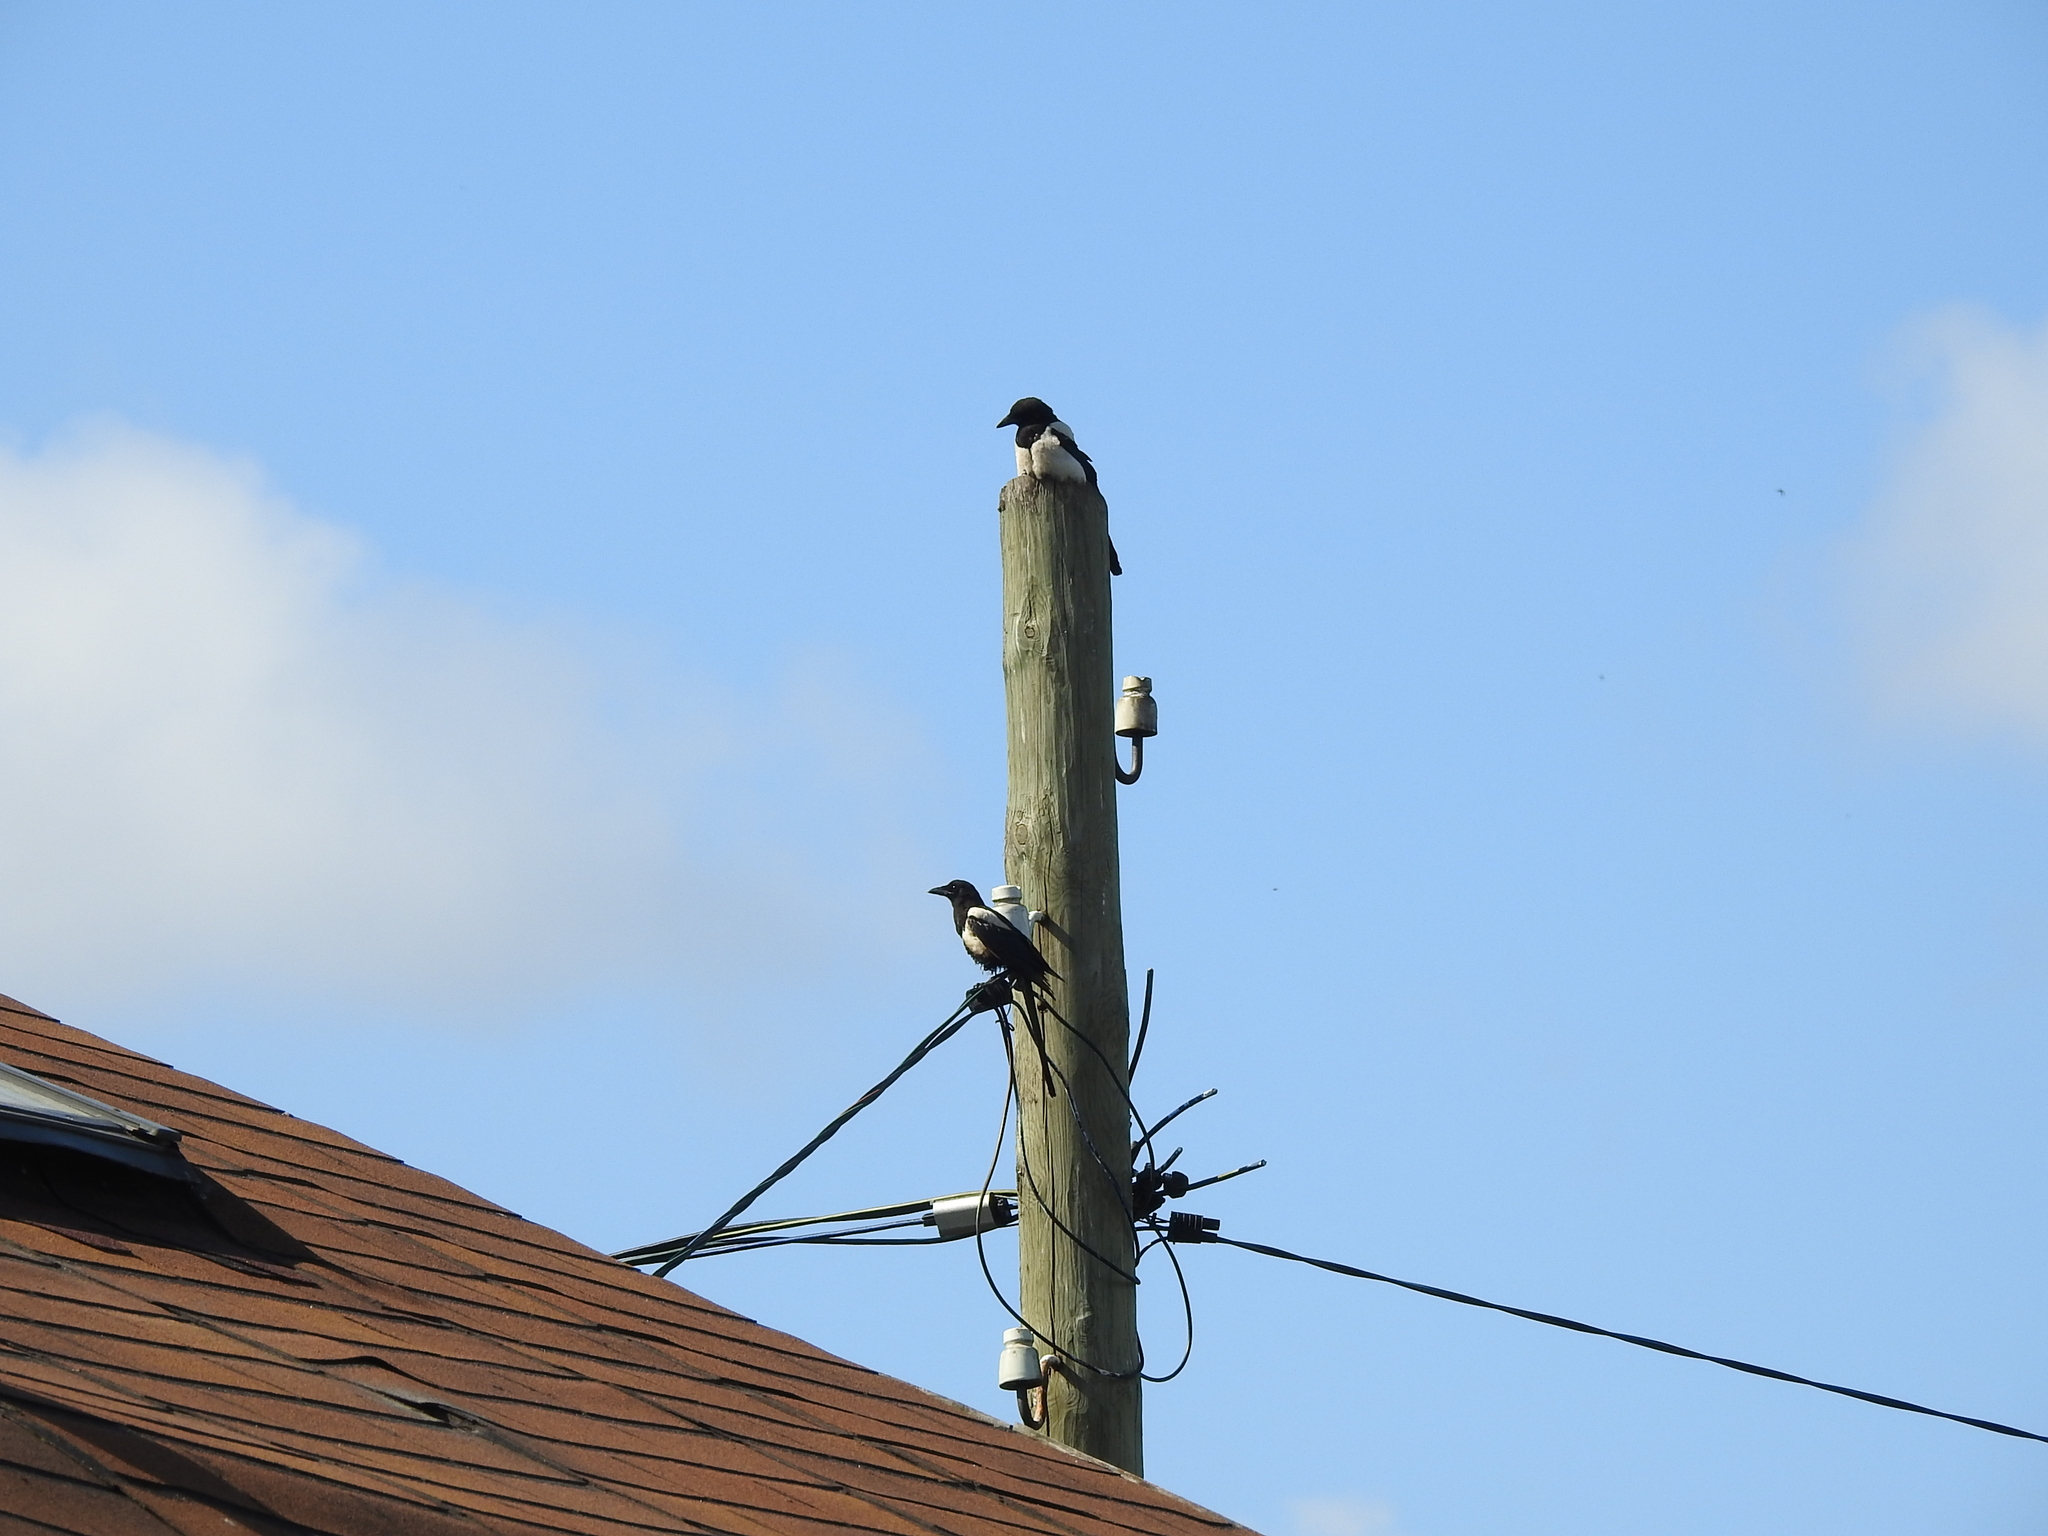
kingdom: Animalia
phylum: Chordata
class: Aves
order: Passeriformes
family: Corvidae
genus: Pica
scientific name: Pica pica
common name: Eurasian magpie
